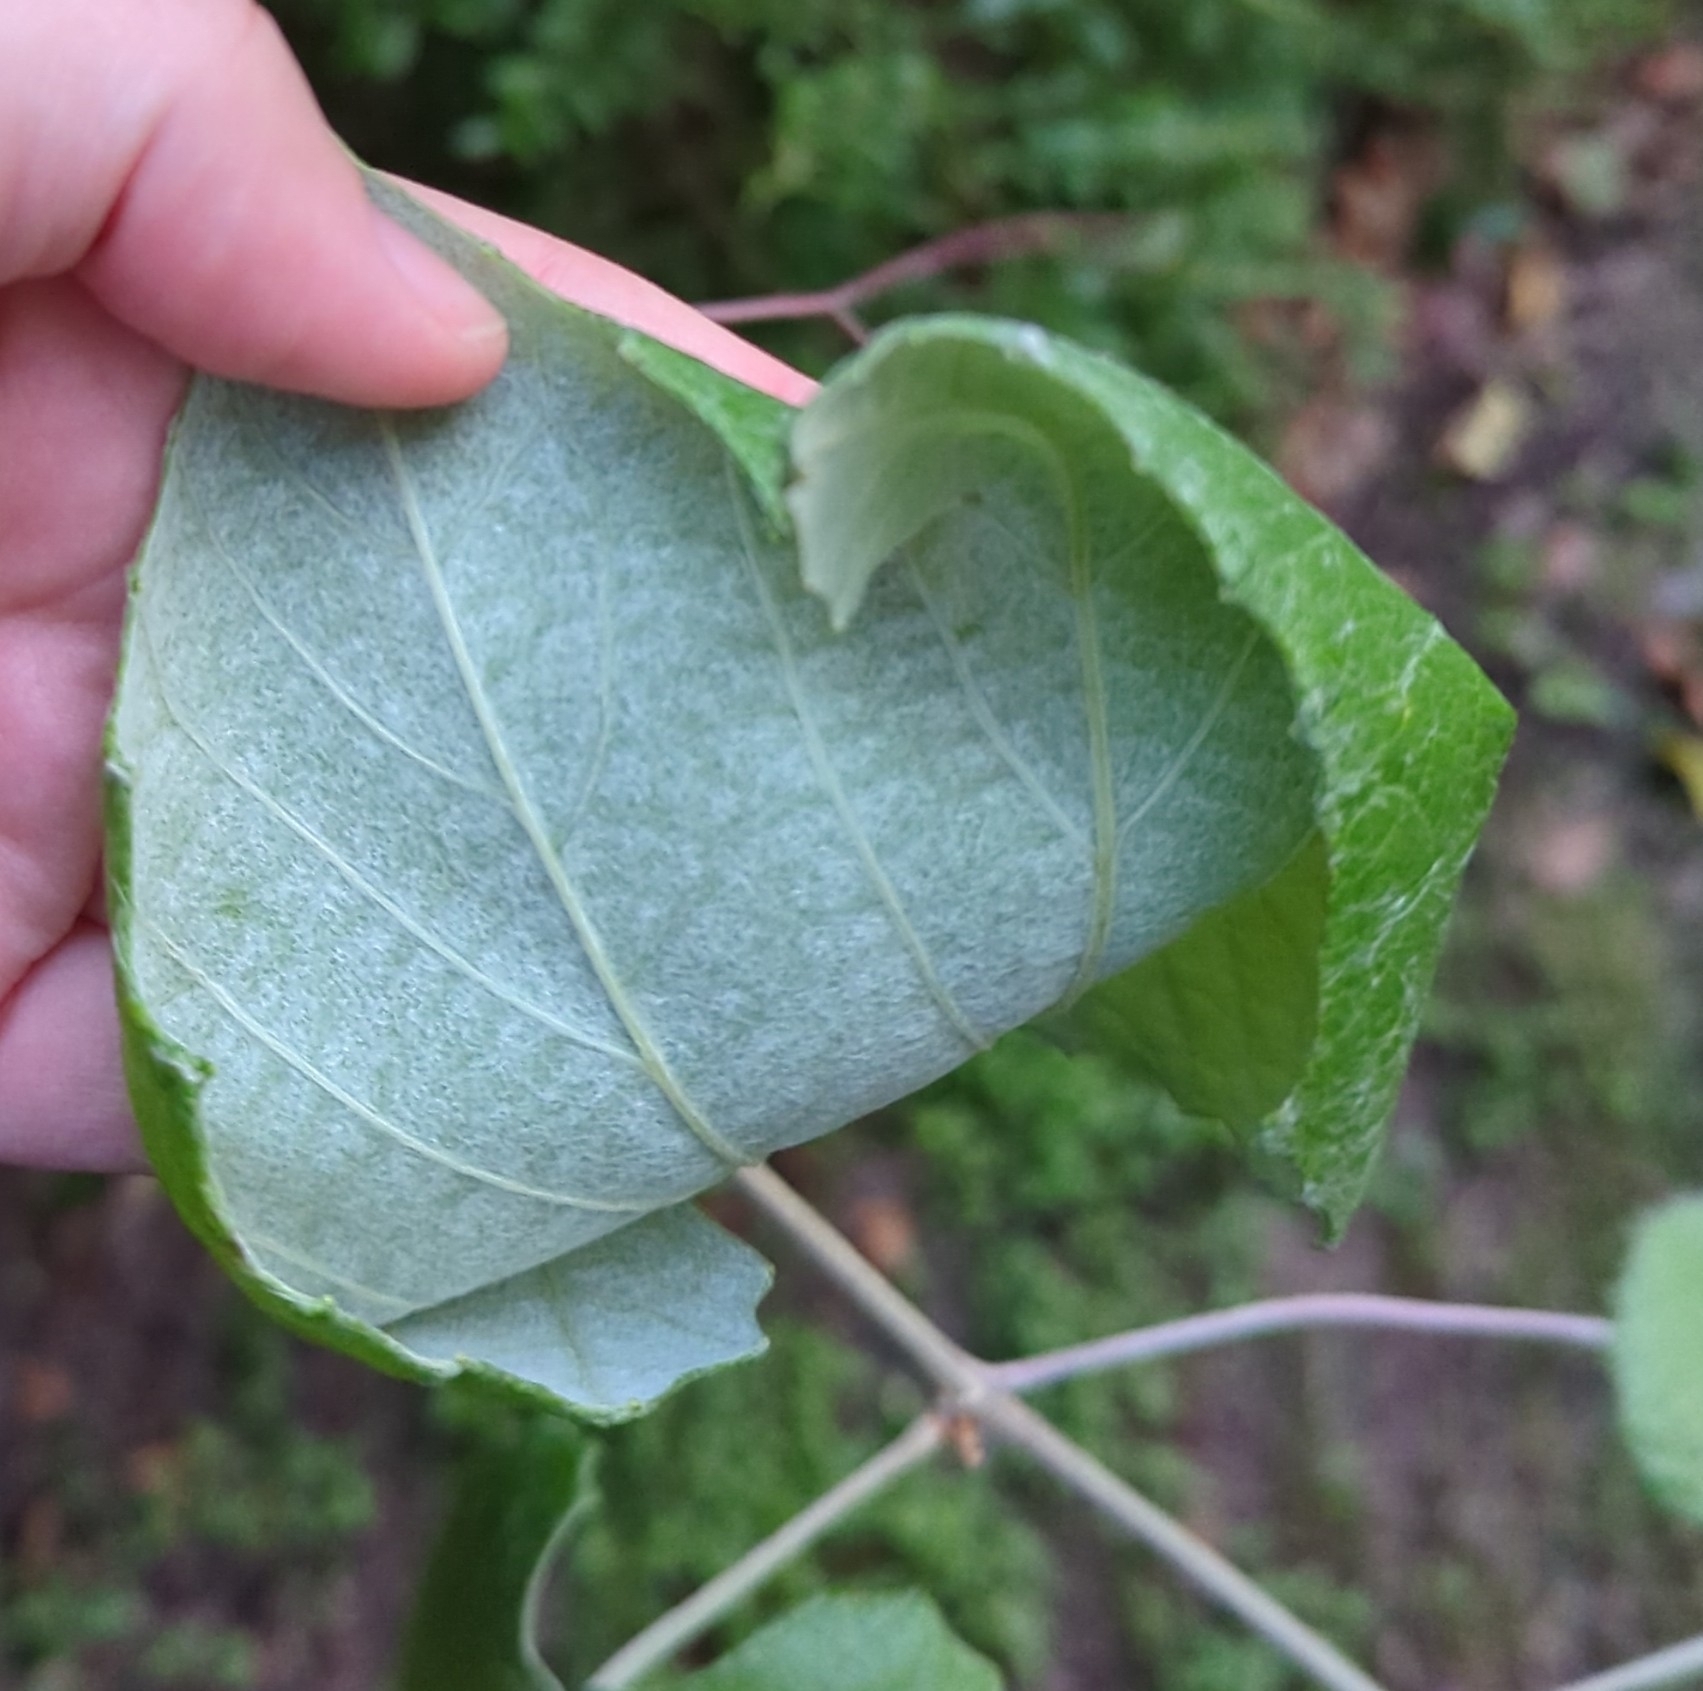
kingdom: Plantae
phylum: Tracheophyta
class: Magnoliopsida
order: Vitales
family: Vitaceae
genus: Vitis
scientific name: Vitis mustangensis
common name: Mustang grape
